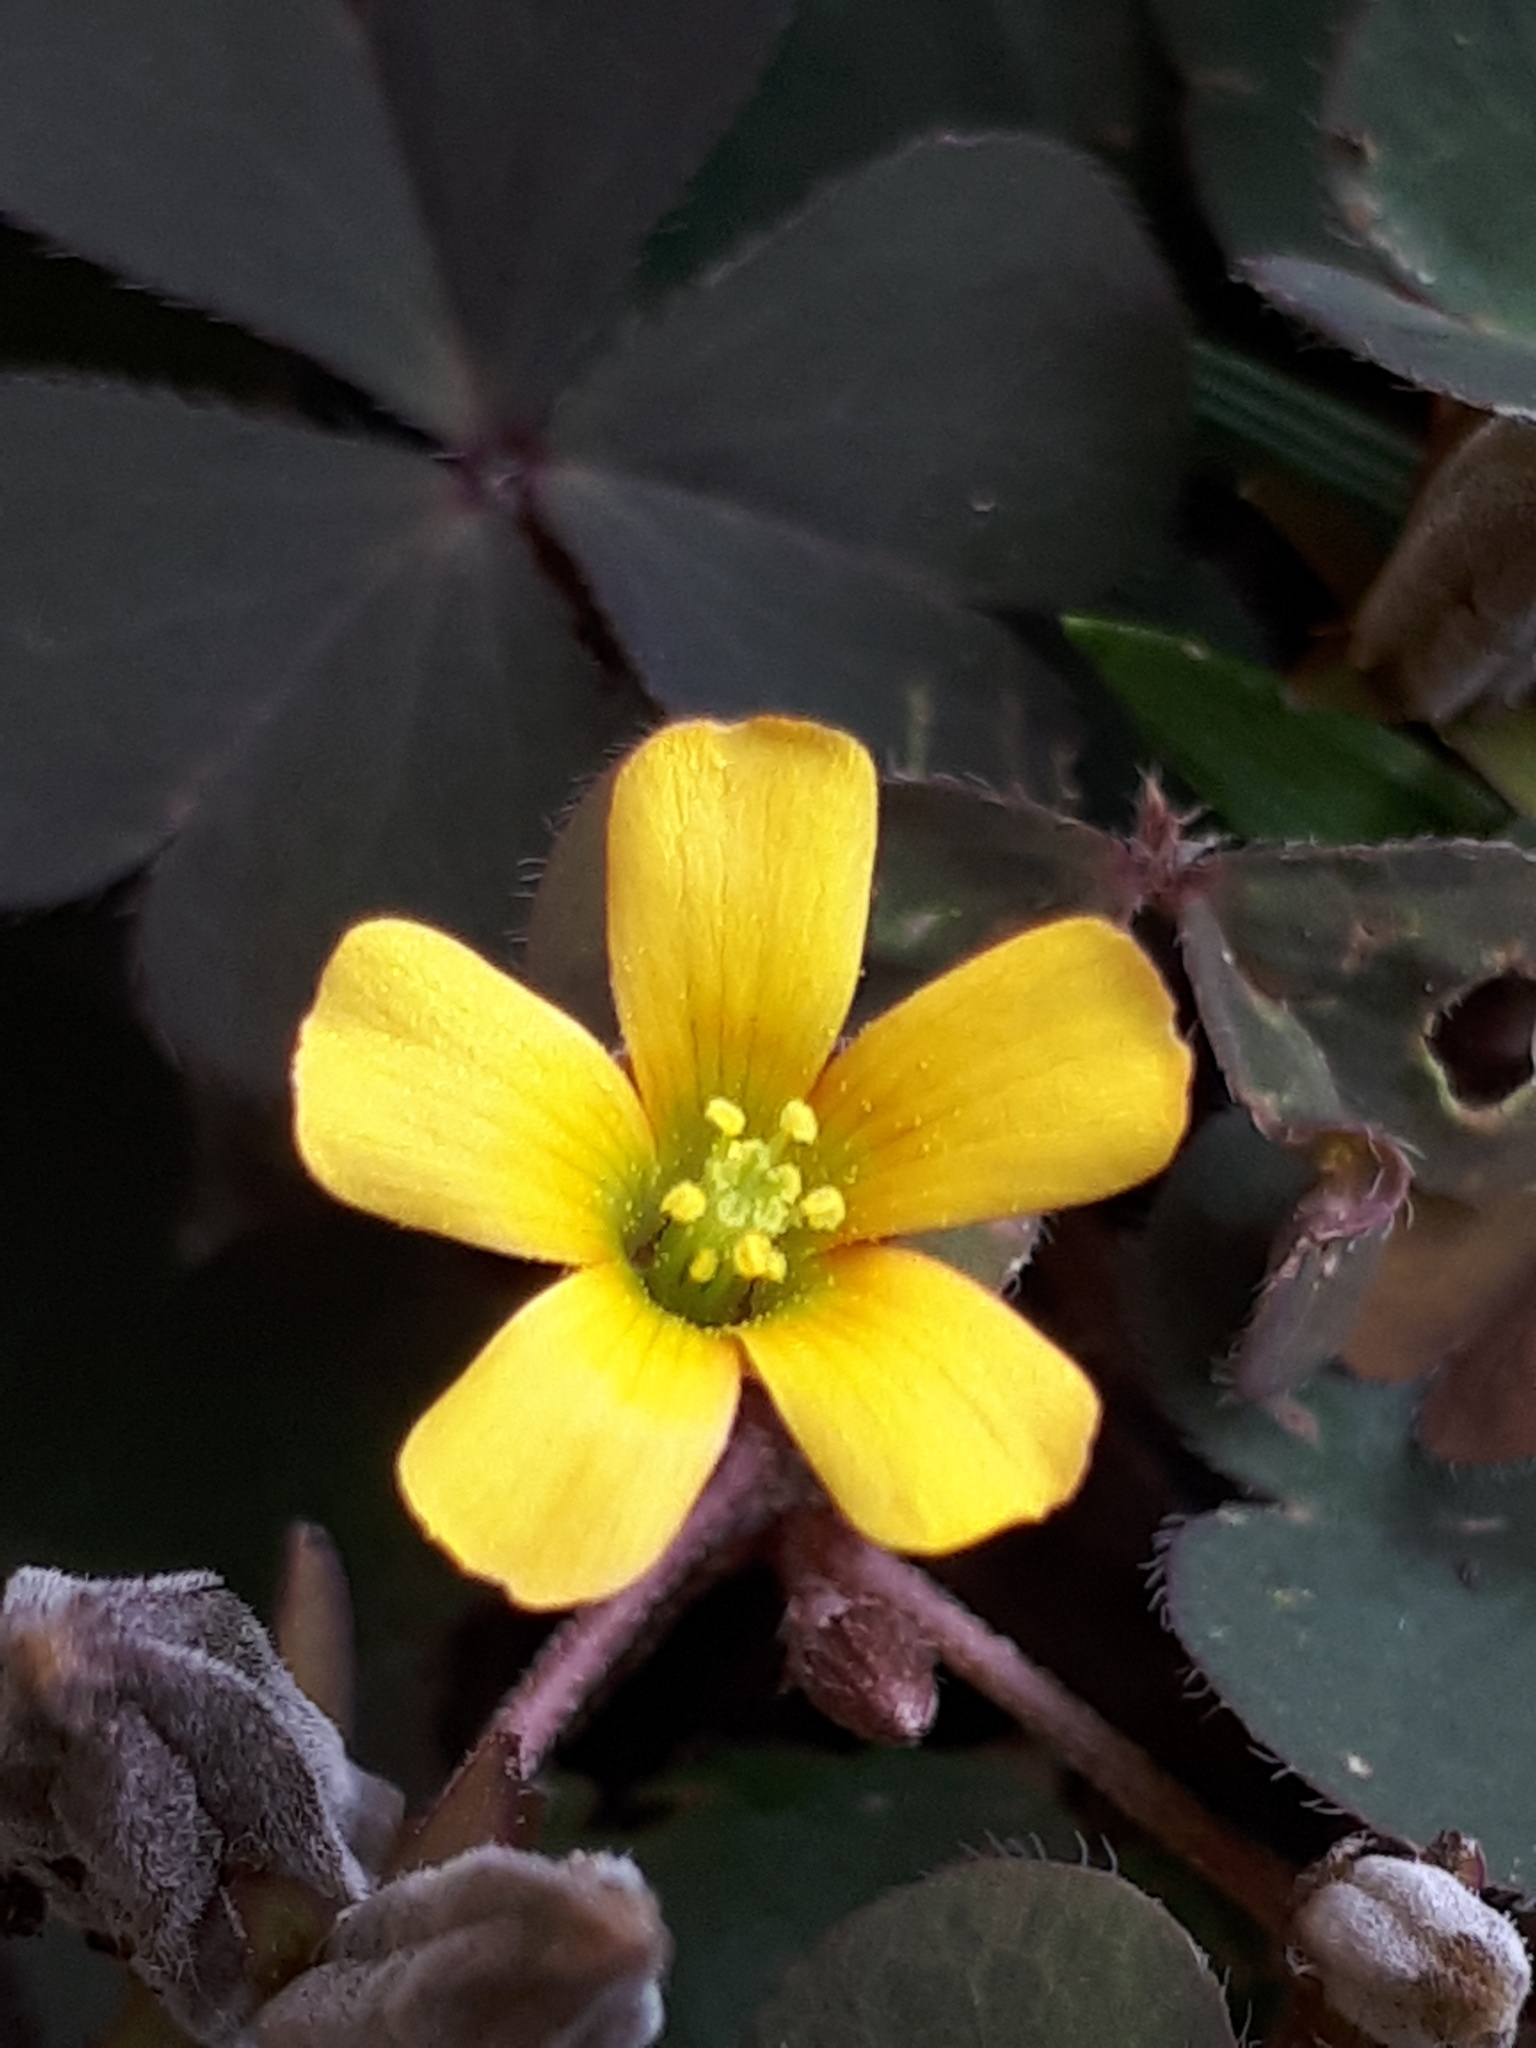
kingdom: Plantae
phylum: Tracheophyta
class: Magnoliopsida
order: Oxalidales
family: Oxalidaceae
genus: Oxalis
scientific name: Oxalis corniculata
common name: Procumbent yellow-sorrel
